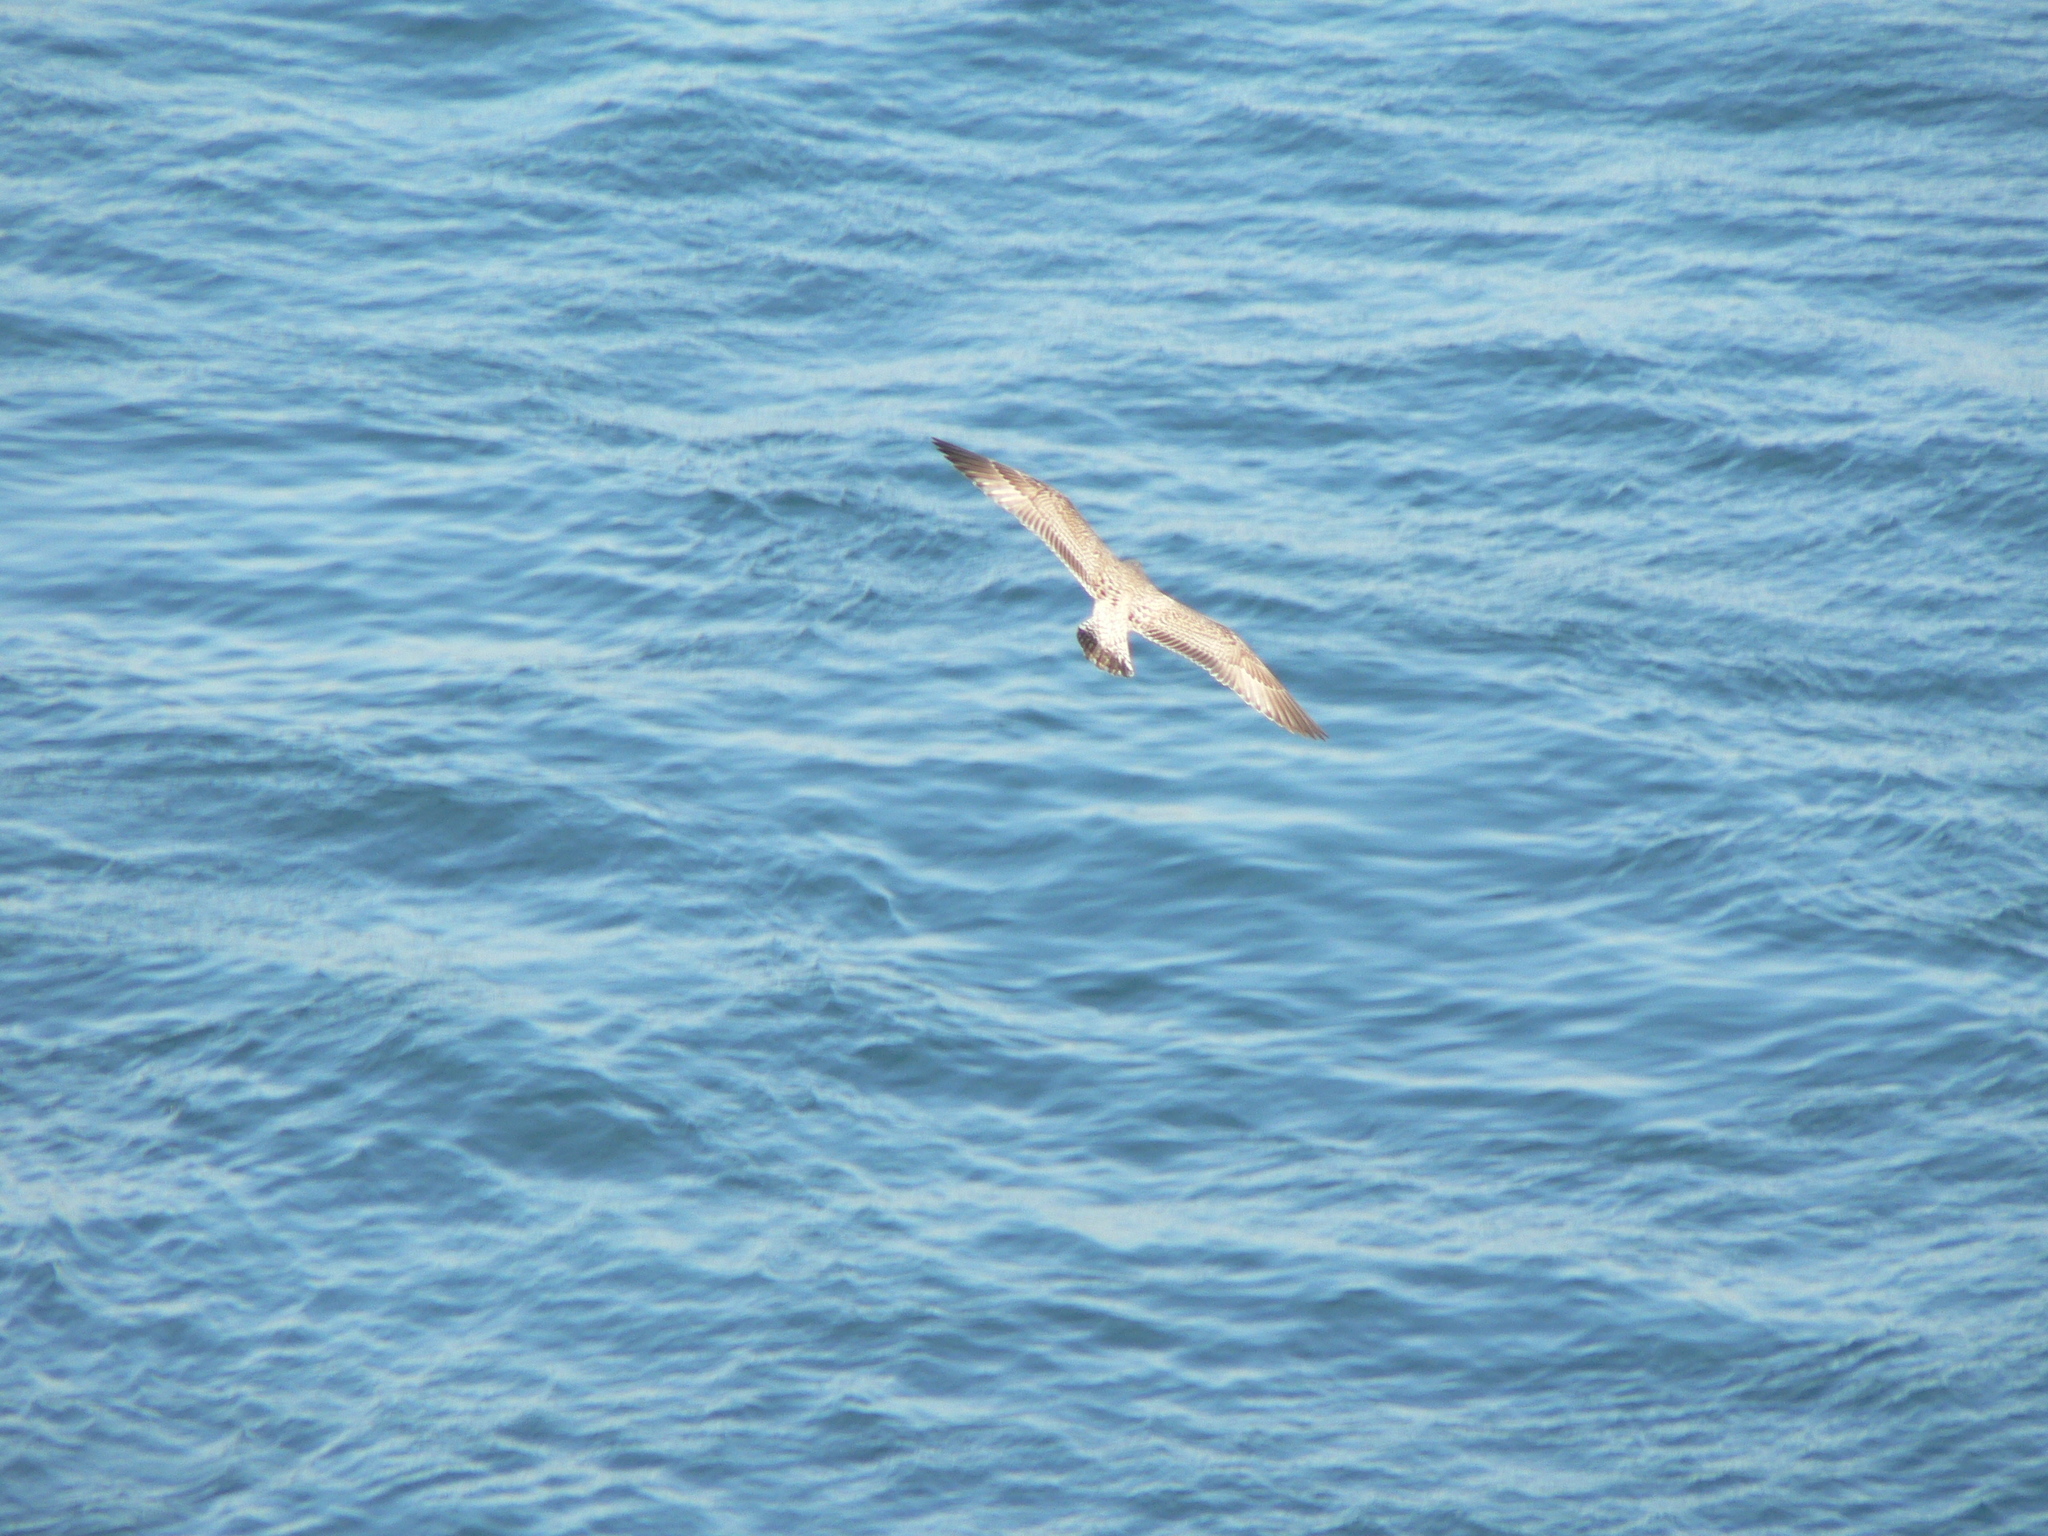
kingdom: Animalia
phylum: Chordata
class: Aves
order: Charadriiformes
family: Laridae
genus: Larus
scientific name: Larus argentatus
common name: Herring gull
